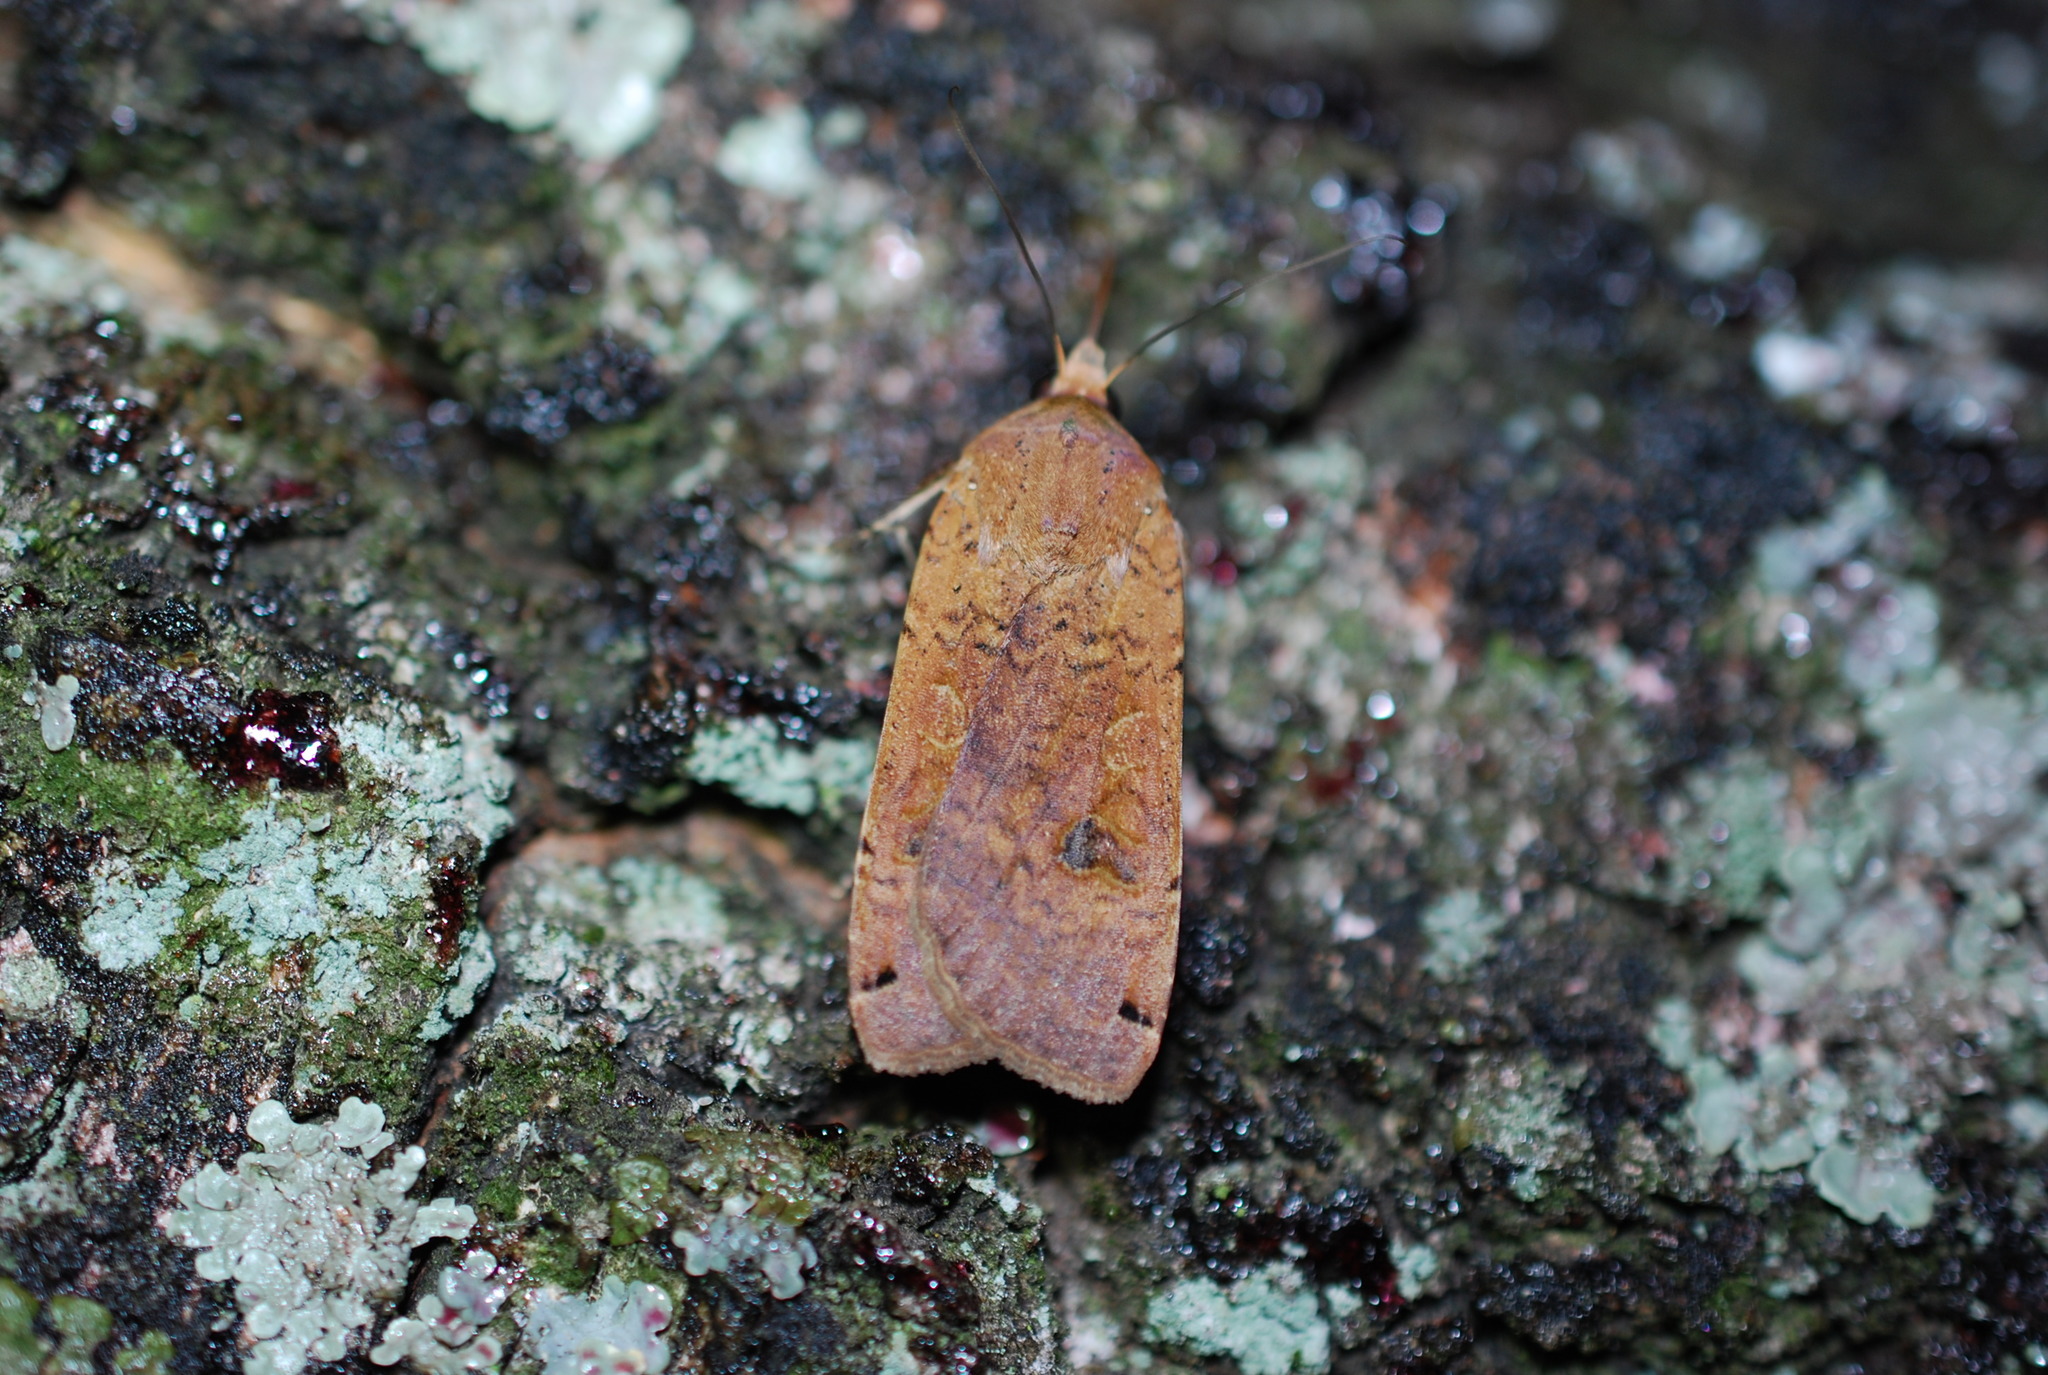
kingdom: Animalia
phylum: Arthropoda
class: Insecta
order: Lepidoptera
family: Noctuidae
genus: Noctua
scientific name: Noctua pronuba
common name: Large yellow underwing
